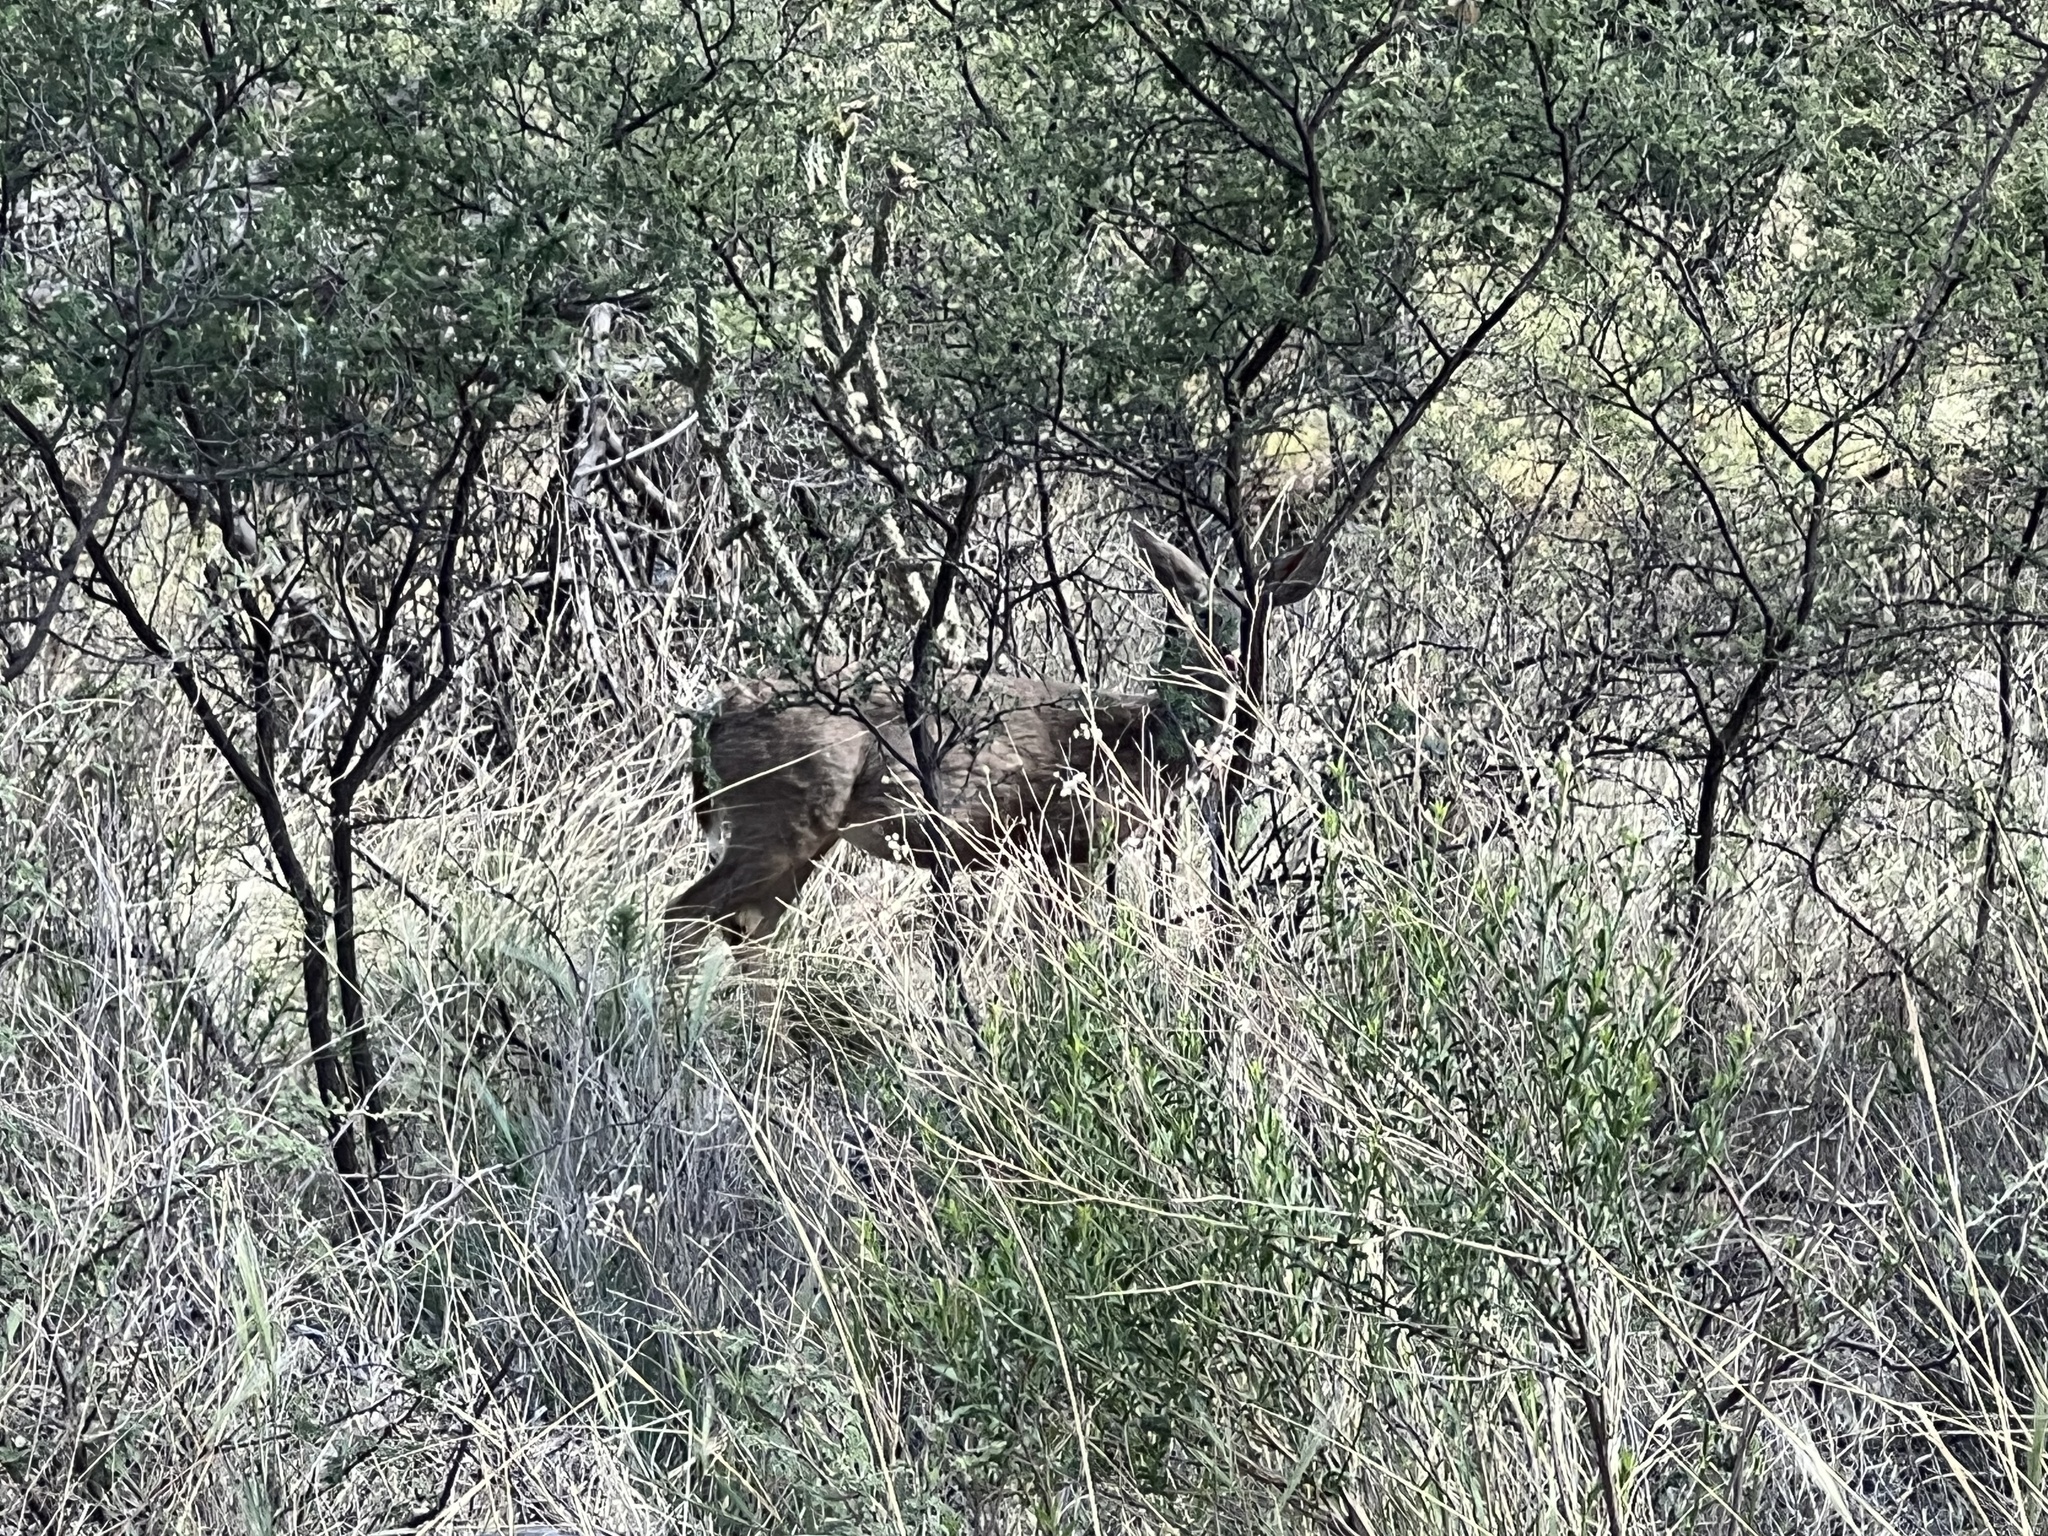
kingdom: Animalia
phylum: Chordata
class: Mammalia
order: Artiodactyla
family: Cervidae
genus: Odocoileus
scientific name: Odocoileus virginianus
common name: White-tailed deer
